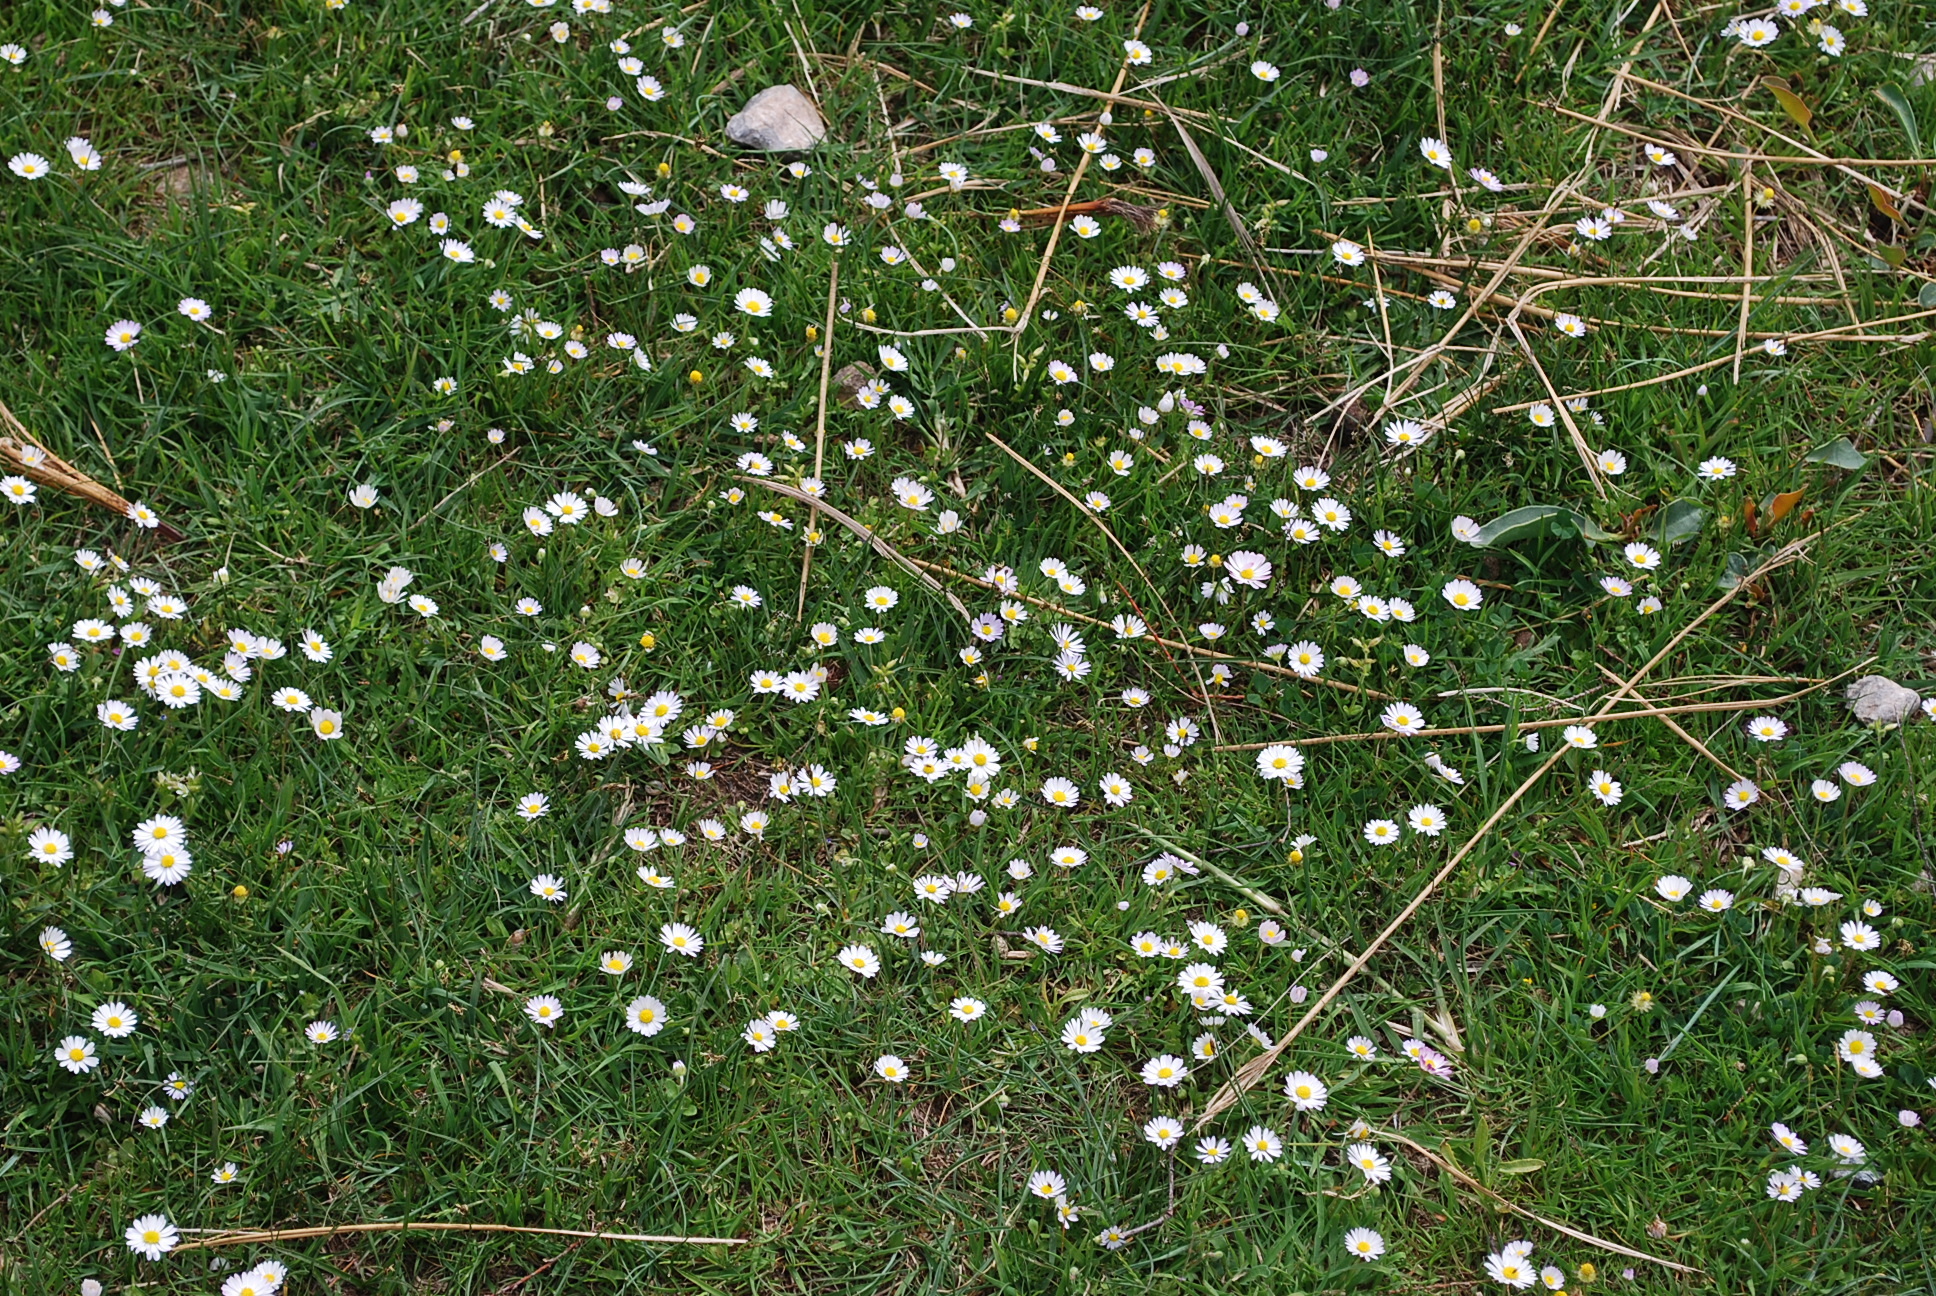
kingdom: Plantae
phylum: Tracheophyta
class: Magnoliopsida
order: Asterales
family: Asteraceae
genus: Bellis
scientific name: Bellis perennis
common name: Lawndaisy
